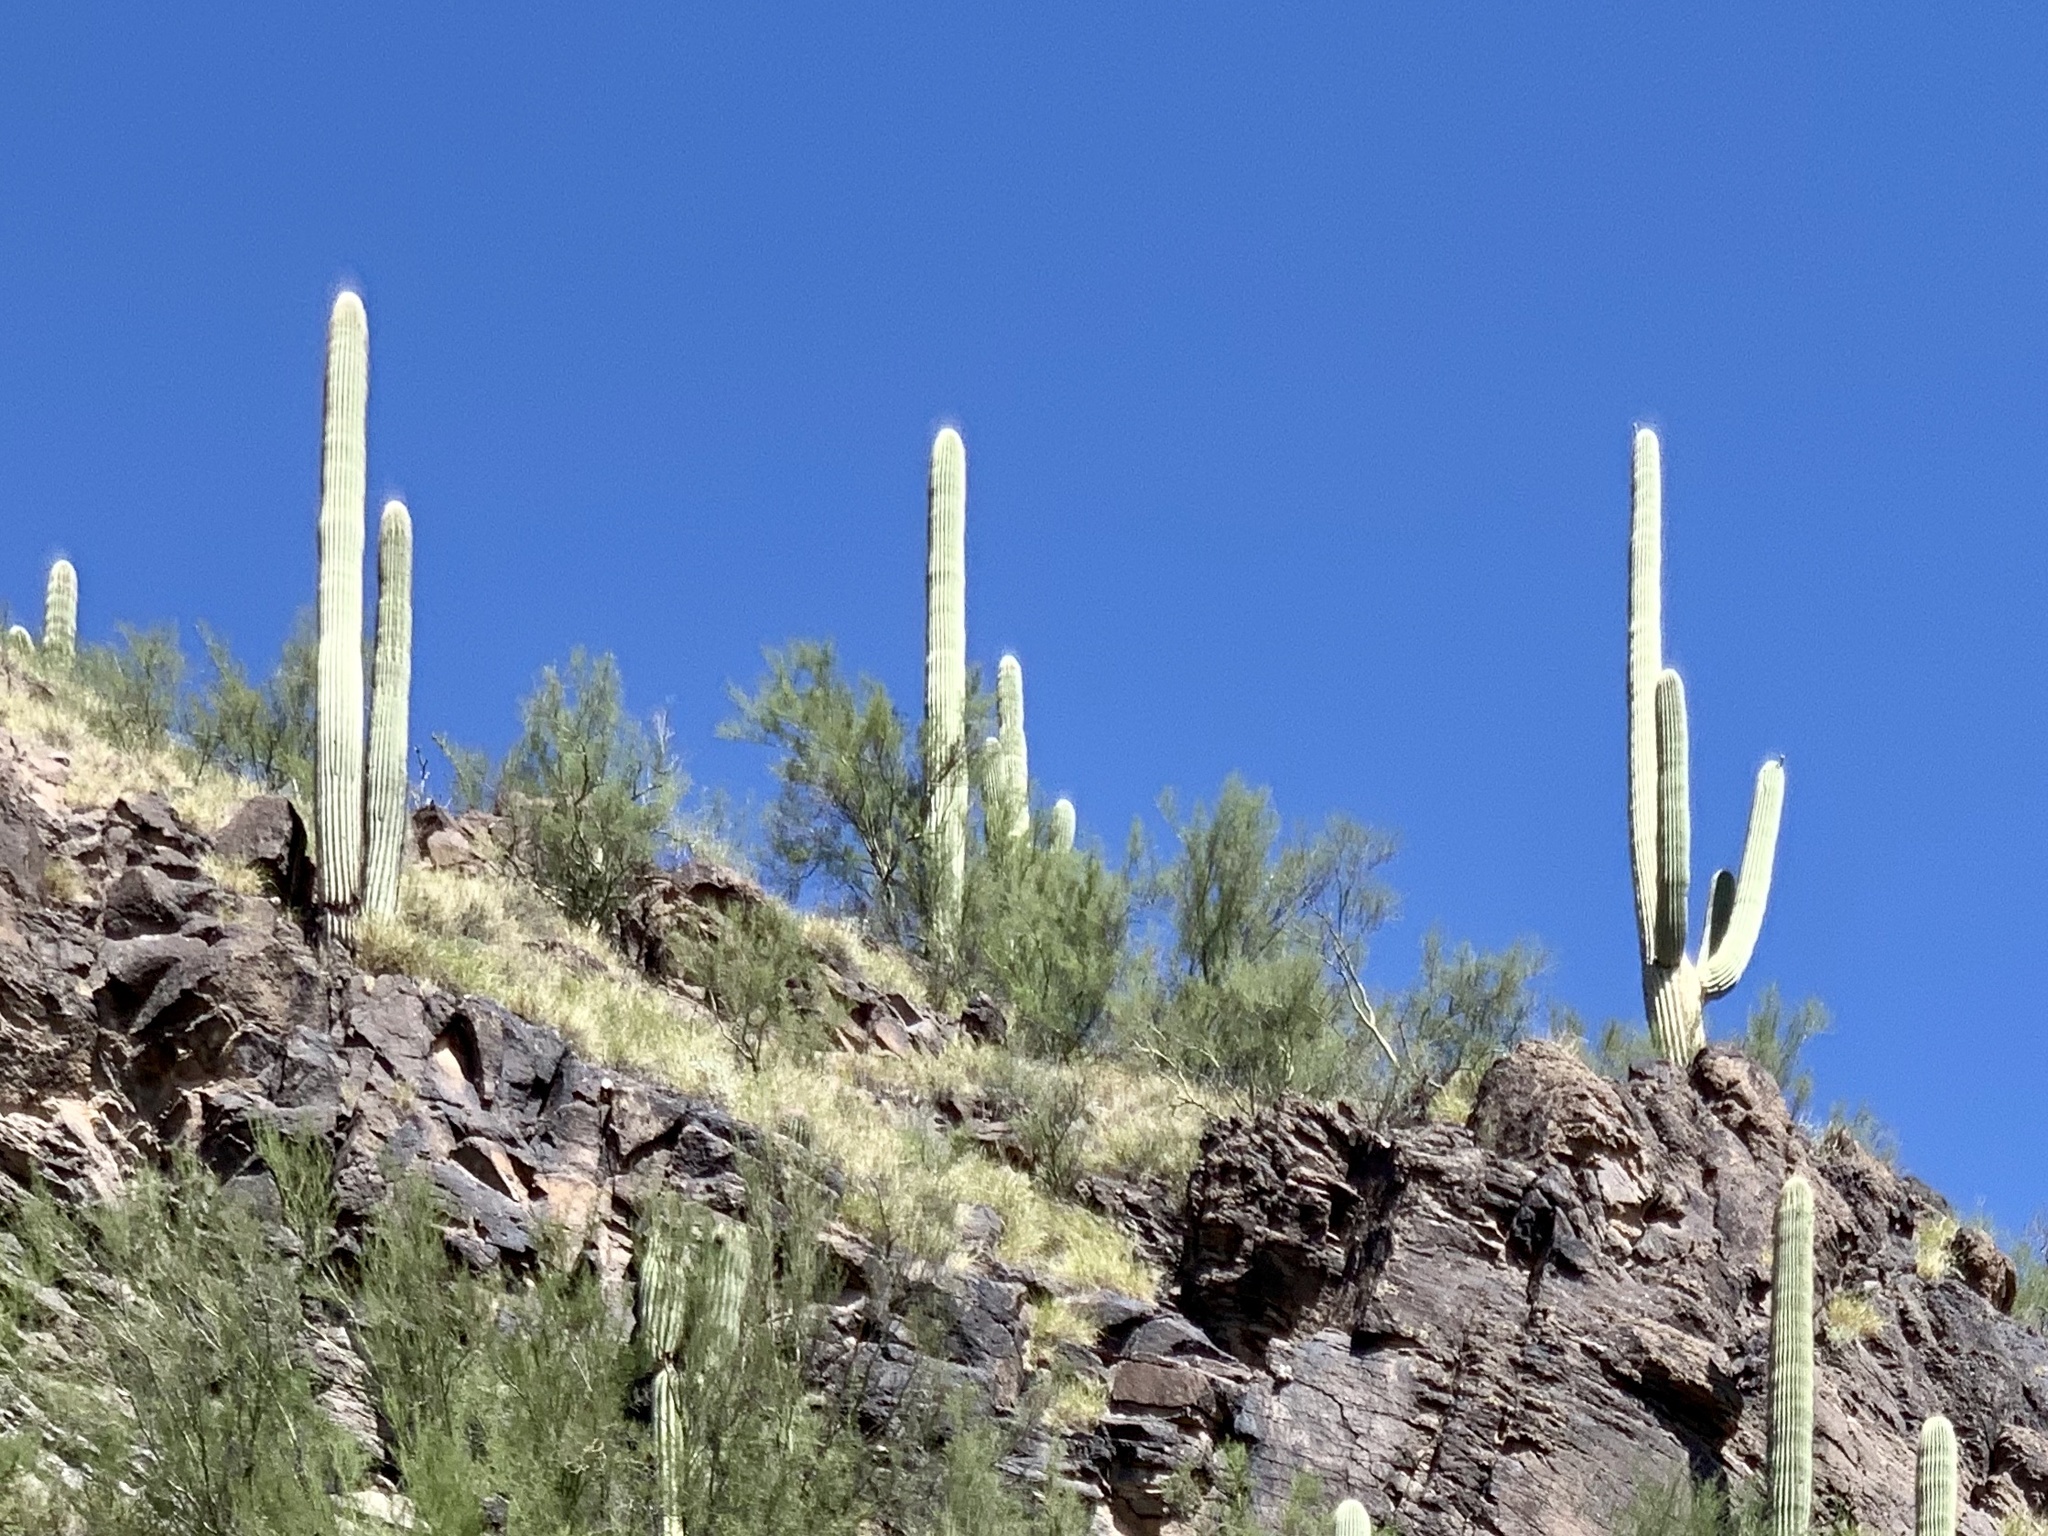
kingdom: Plantae
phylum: Tracheophyta
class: Magnoliopsida
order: Caryophyllales
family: Cactaceae
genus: Carnegiea
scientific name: Carnegiea gigantea
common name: Saguaro
